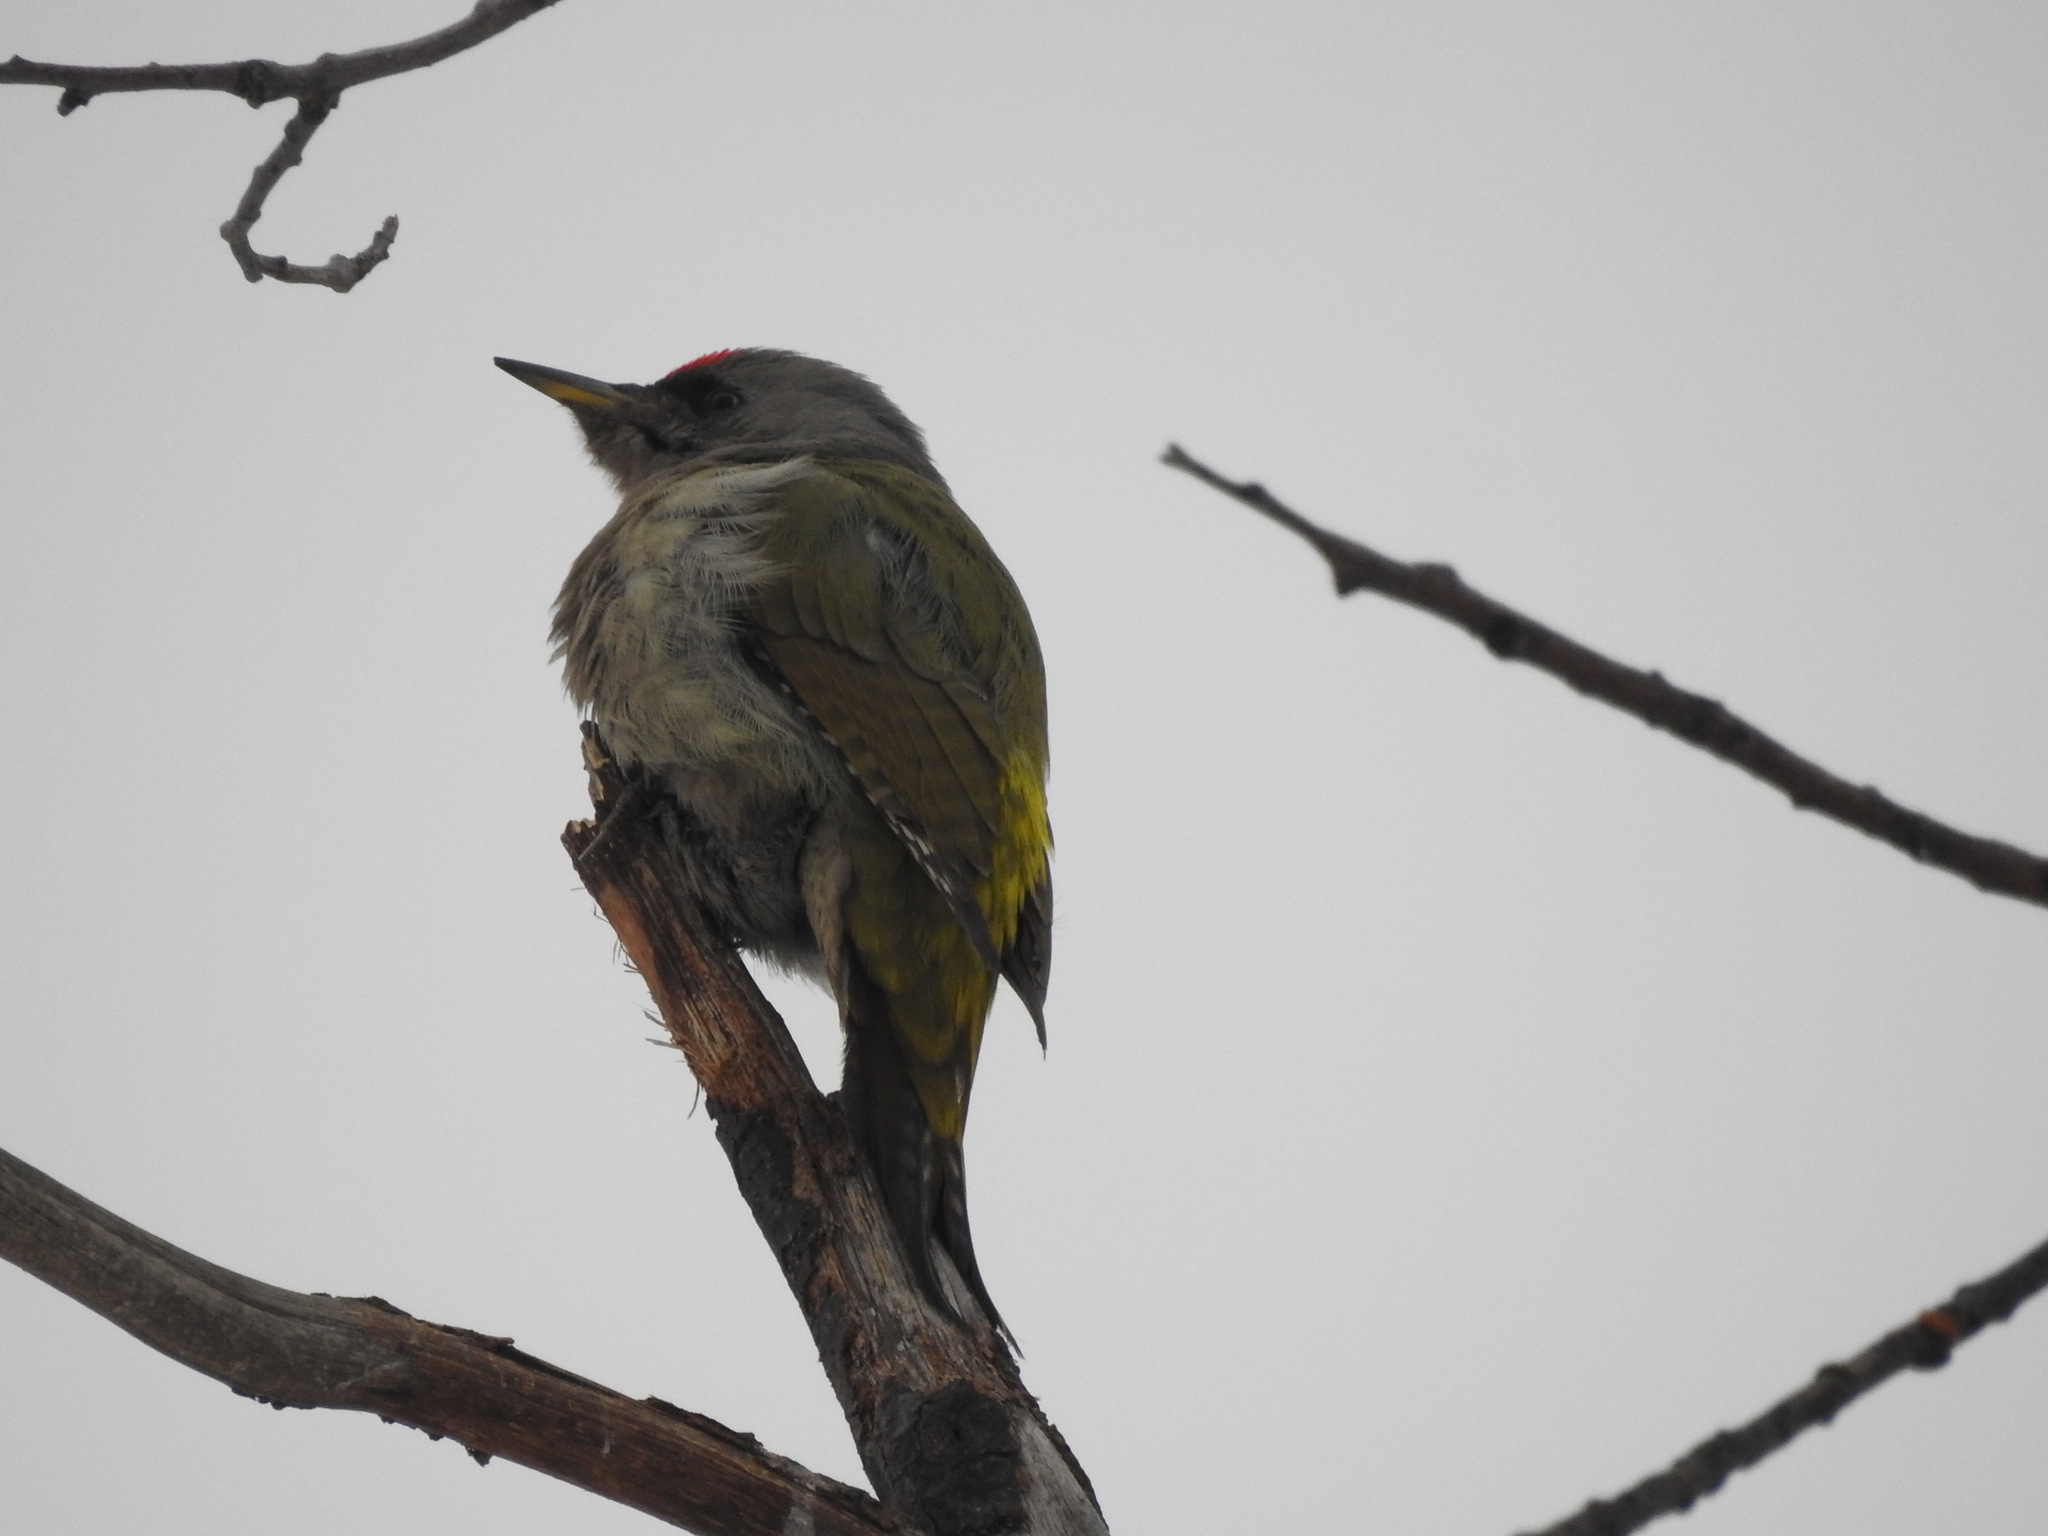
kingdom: Animalia
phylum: Chordata
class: Aves
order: Piciformes
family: Picidae
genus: Picus
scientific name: Picus canus
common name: Grey-headed woodpecker
